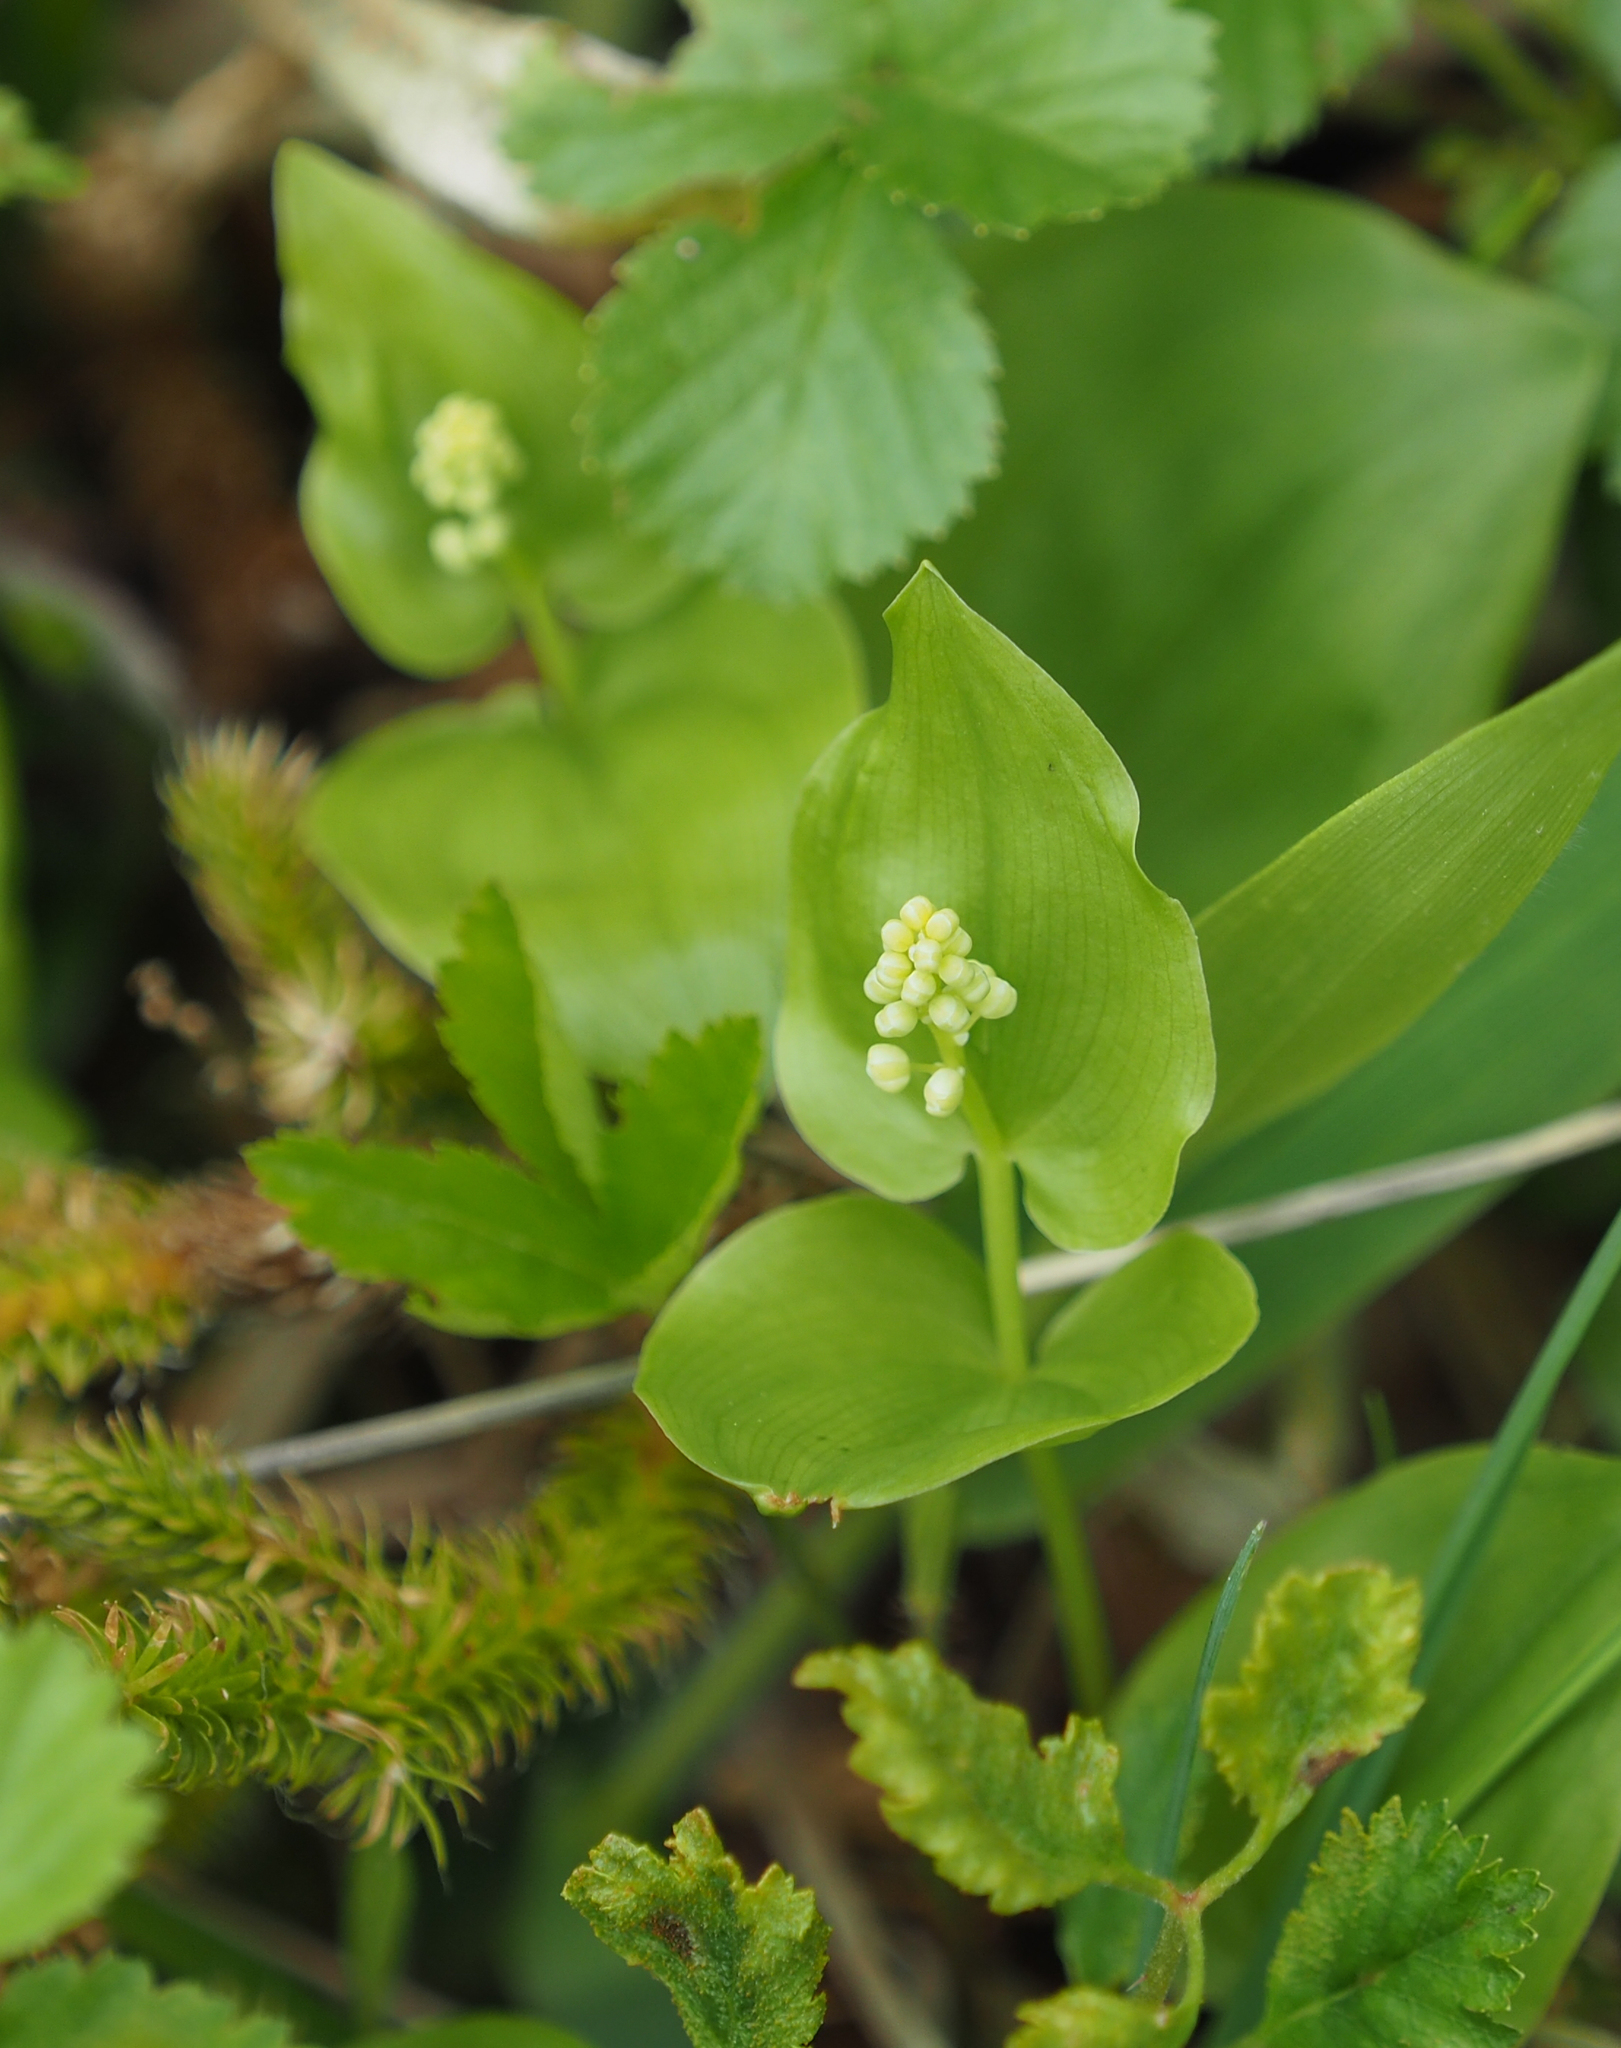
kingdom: Plantae
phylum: Tracheophyta
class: Liliopsida
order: Asparagales
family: Asparagaceae
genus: Maianthemum
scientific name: Maianthemum canadense
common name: False lily-of-the-valley
